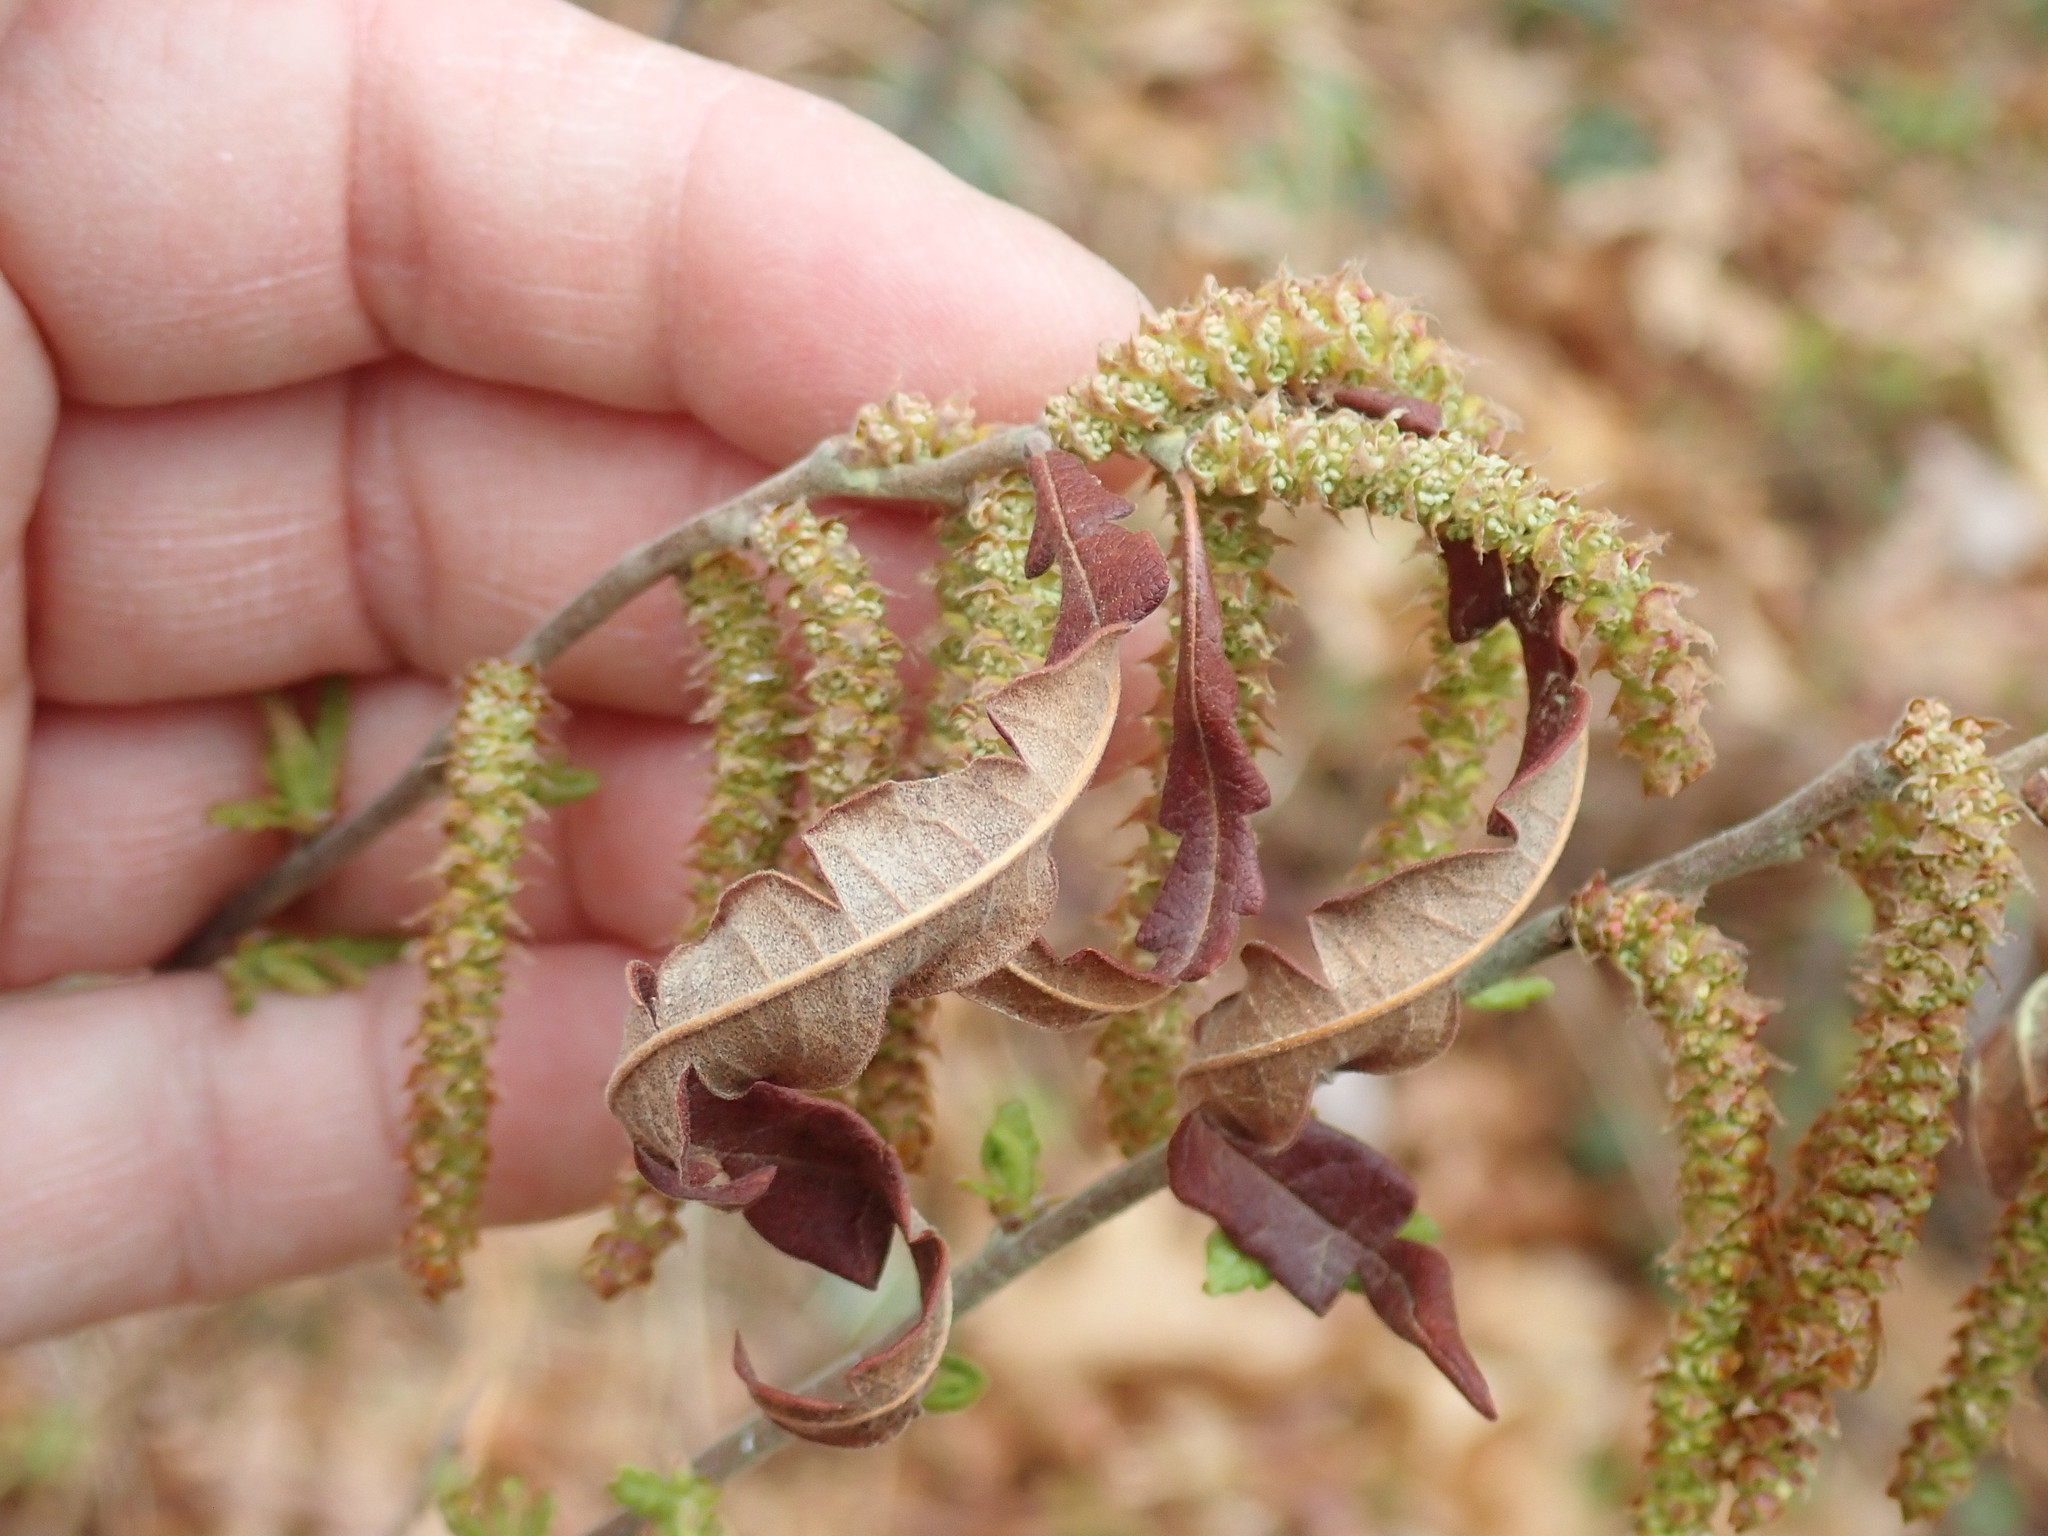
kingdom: Plantae
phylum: Tracheophyta
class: Magnoliopsida
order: Fagales
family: Myricaceae
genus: Comptonia
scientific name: Comptonia peregrina
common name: Sweet-fern
